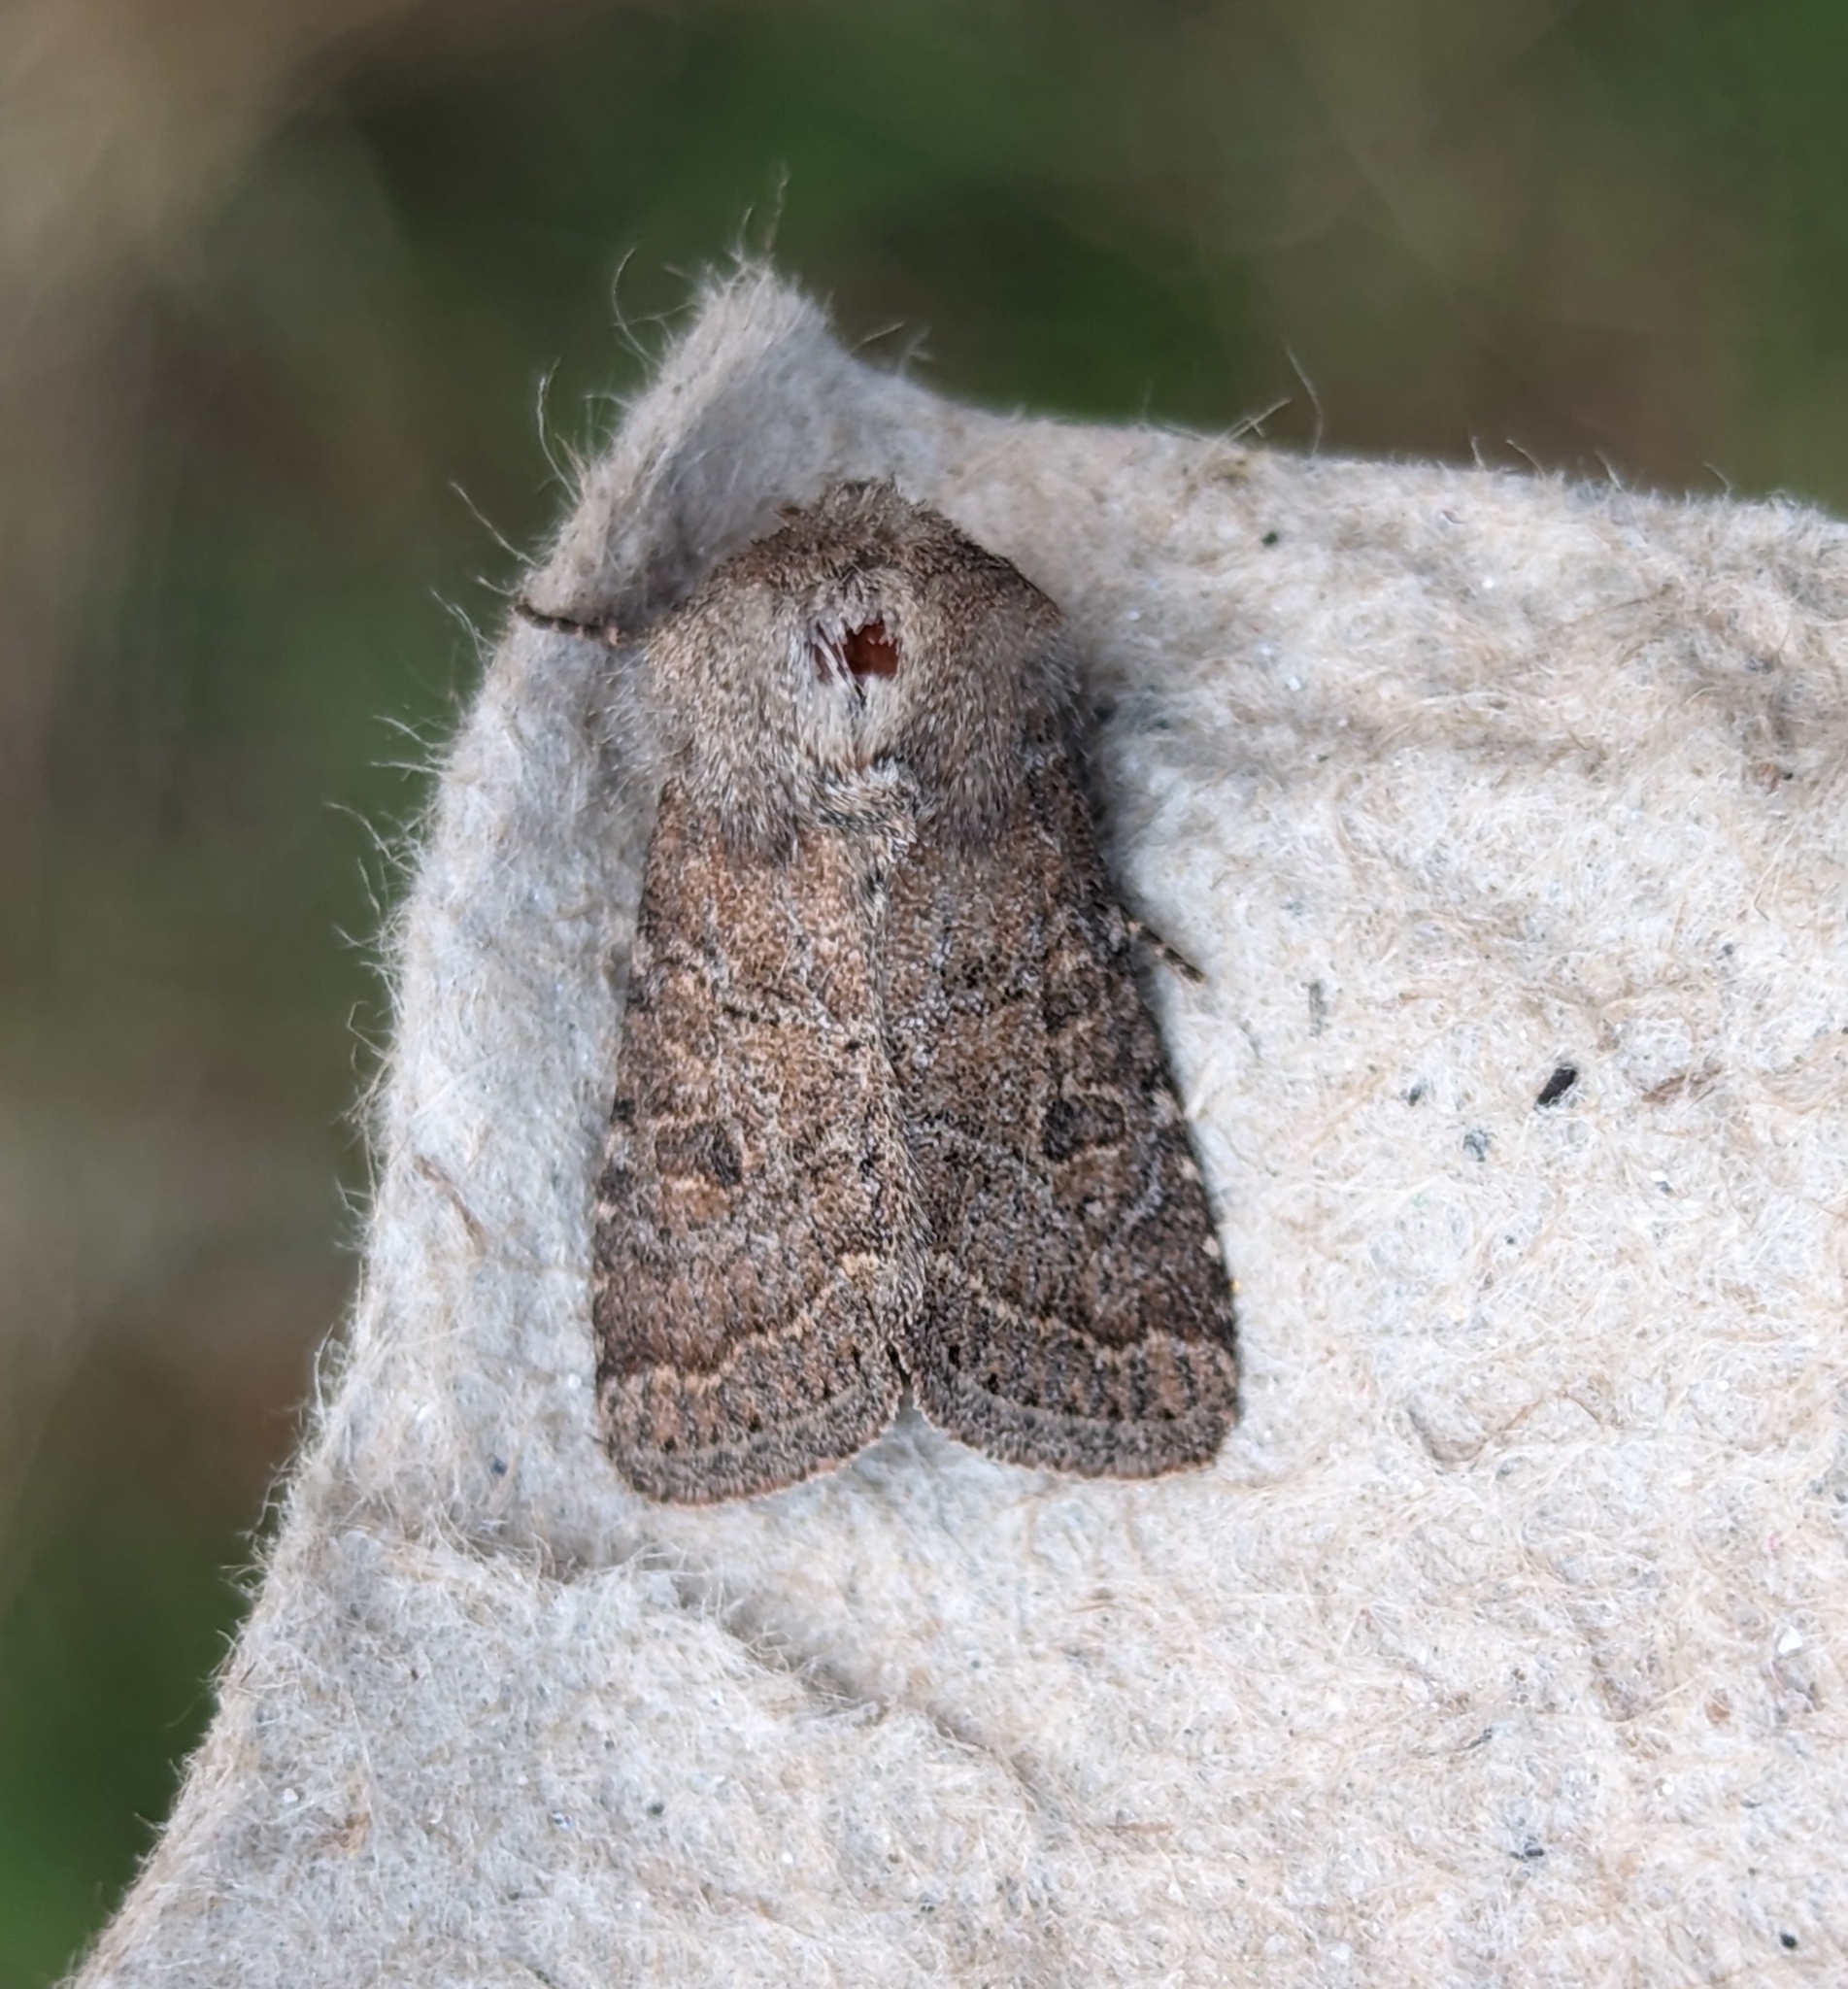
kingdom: Animalia
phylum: Arthropoda
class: Insecta
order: Lepidoptera
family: Noctuidae
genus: Trichopolia
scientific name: Trichopolia
